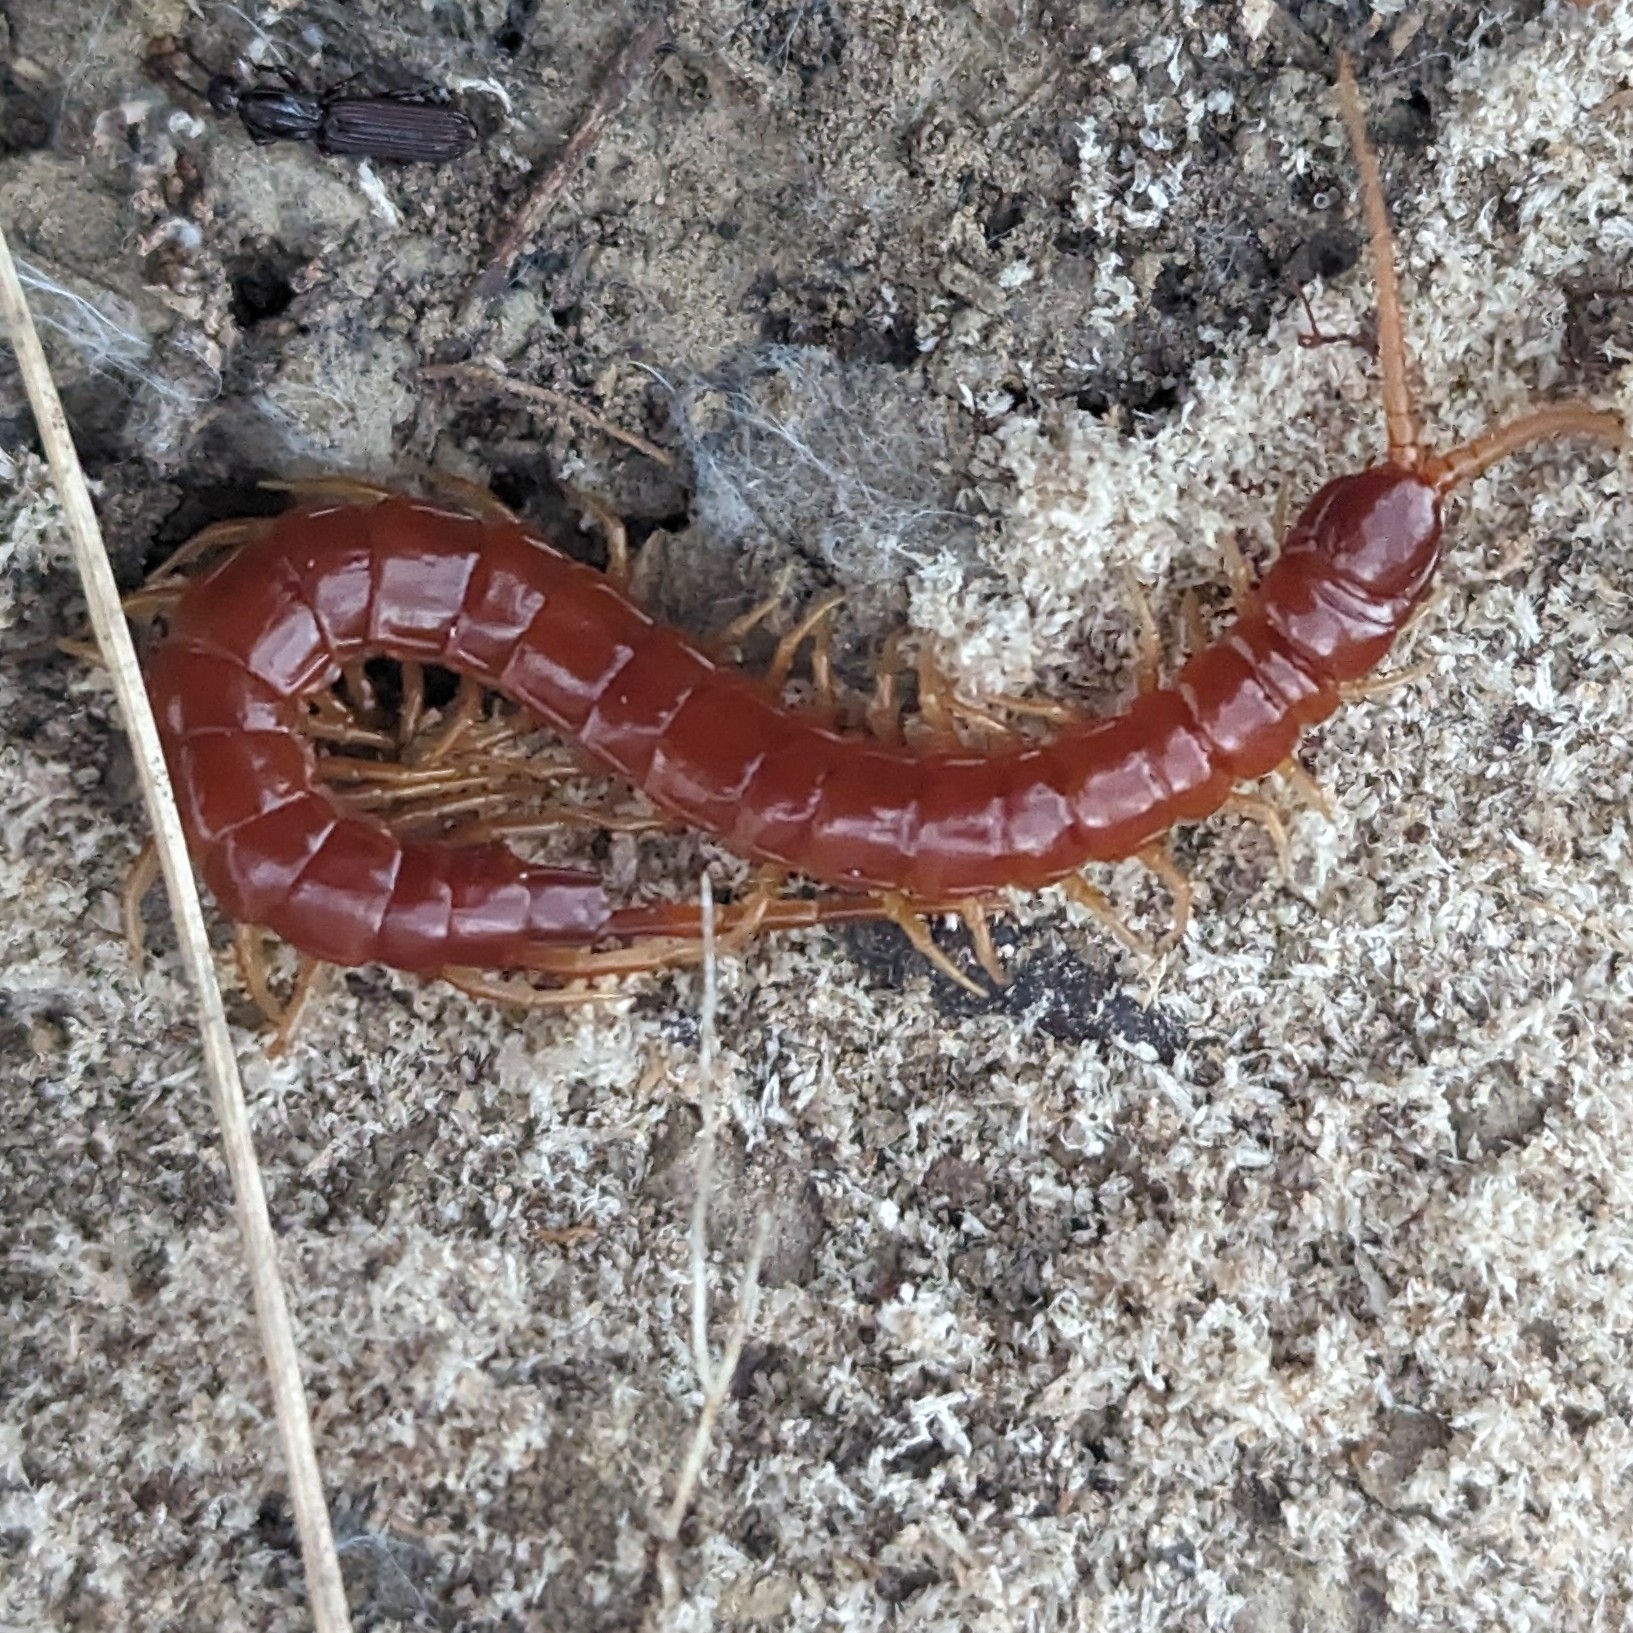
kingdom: Animalia
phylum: Arthropoda
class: Chilopoda
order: Scolopendromorpha
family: Scolopocryptopidae
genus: Scolopocryptops
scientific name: Scolopocryptops sexspinosus
